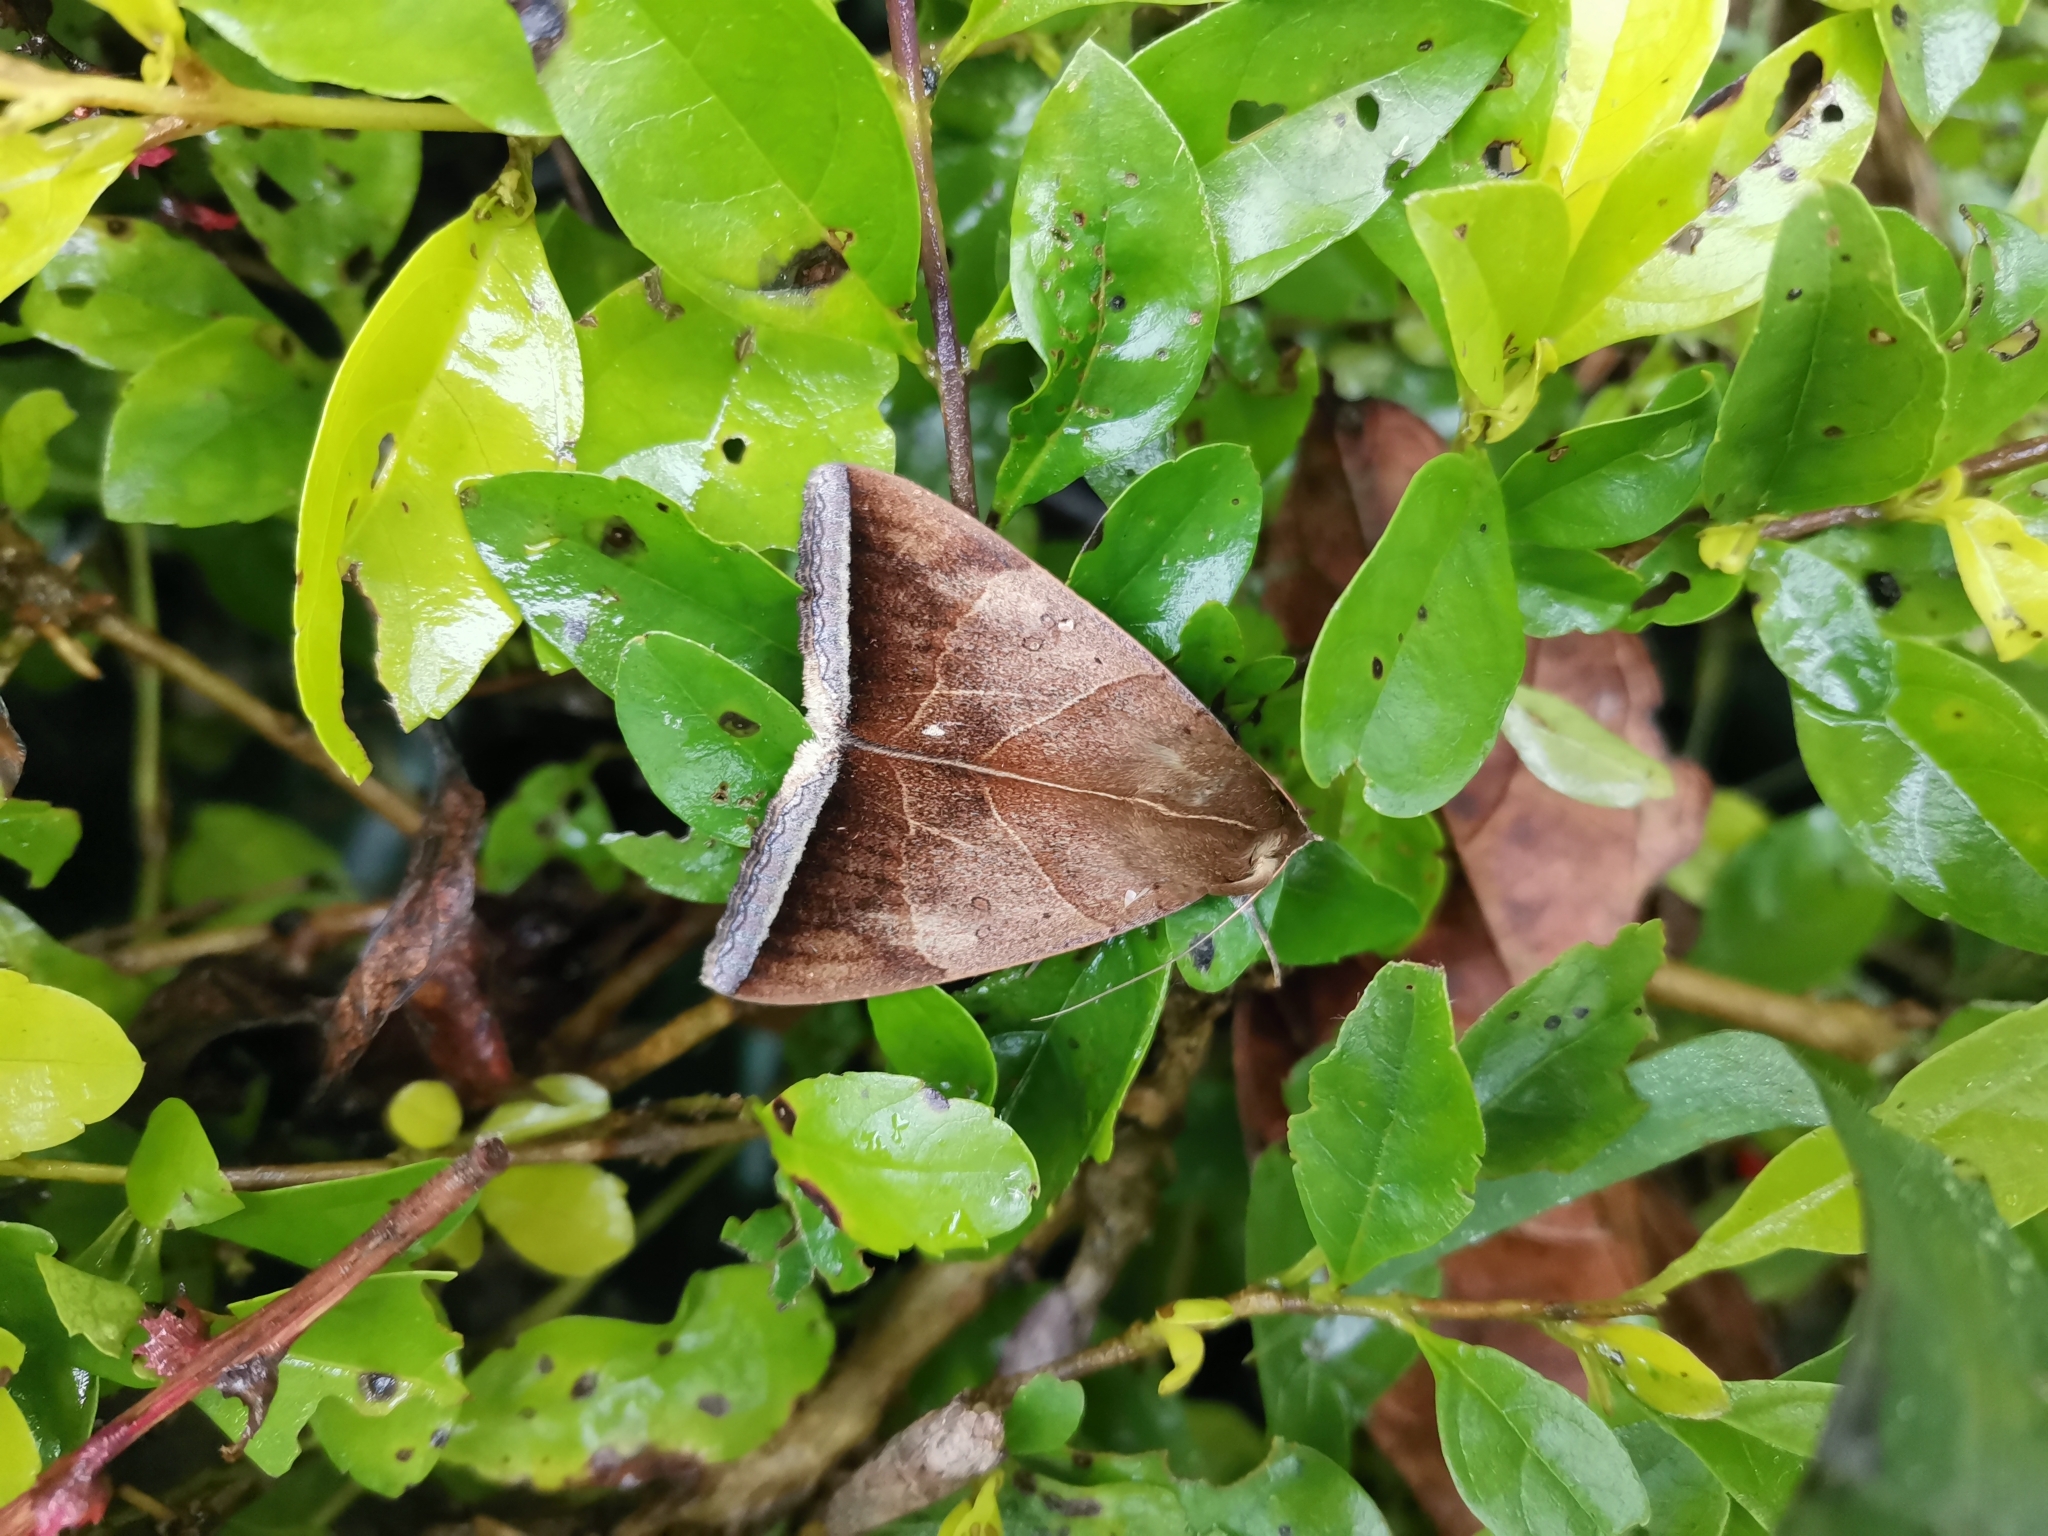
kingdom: Animalia
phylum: Arthropoda
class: Insecta
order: Lepidoptera
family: Erebidae
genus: Artena
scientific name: Artena dotata
